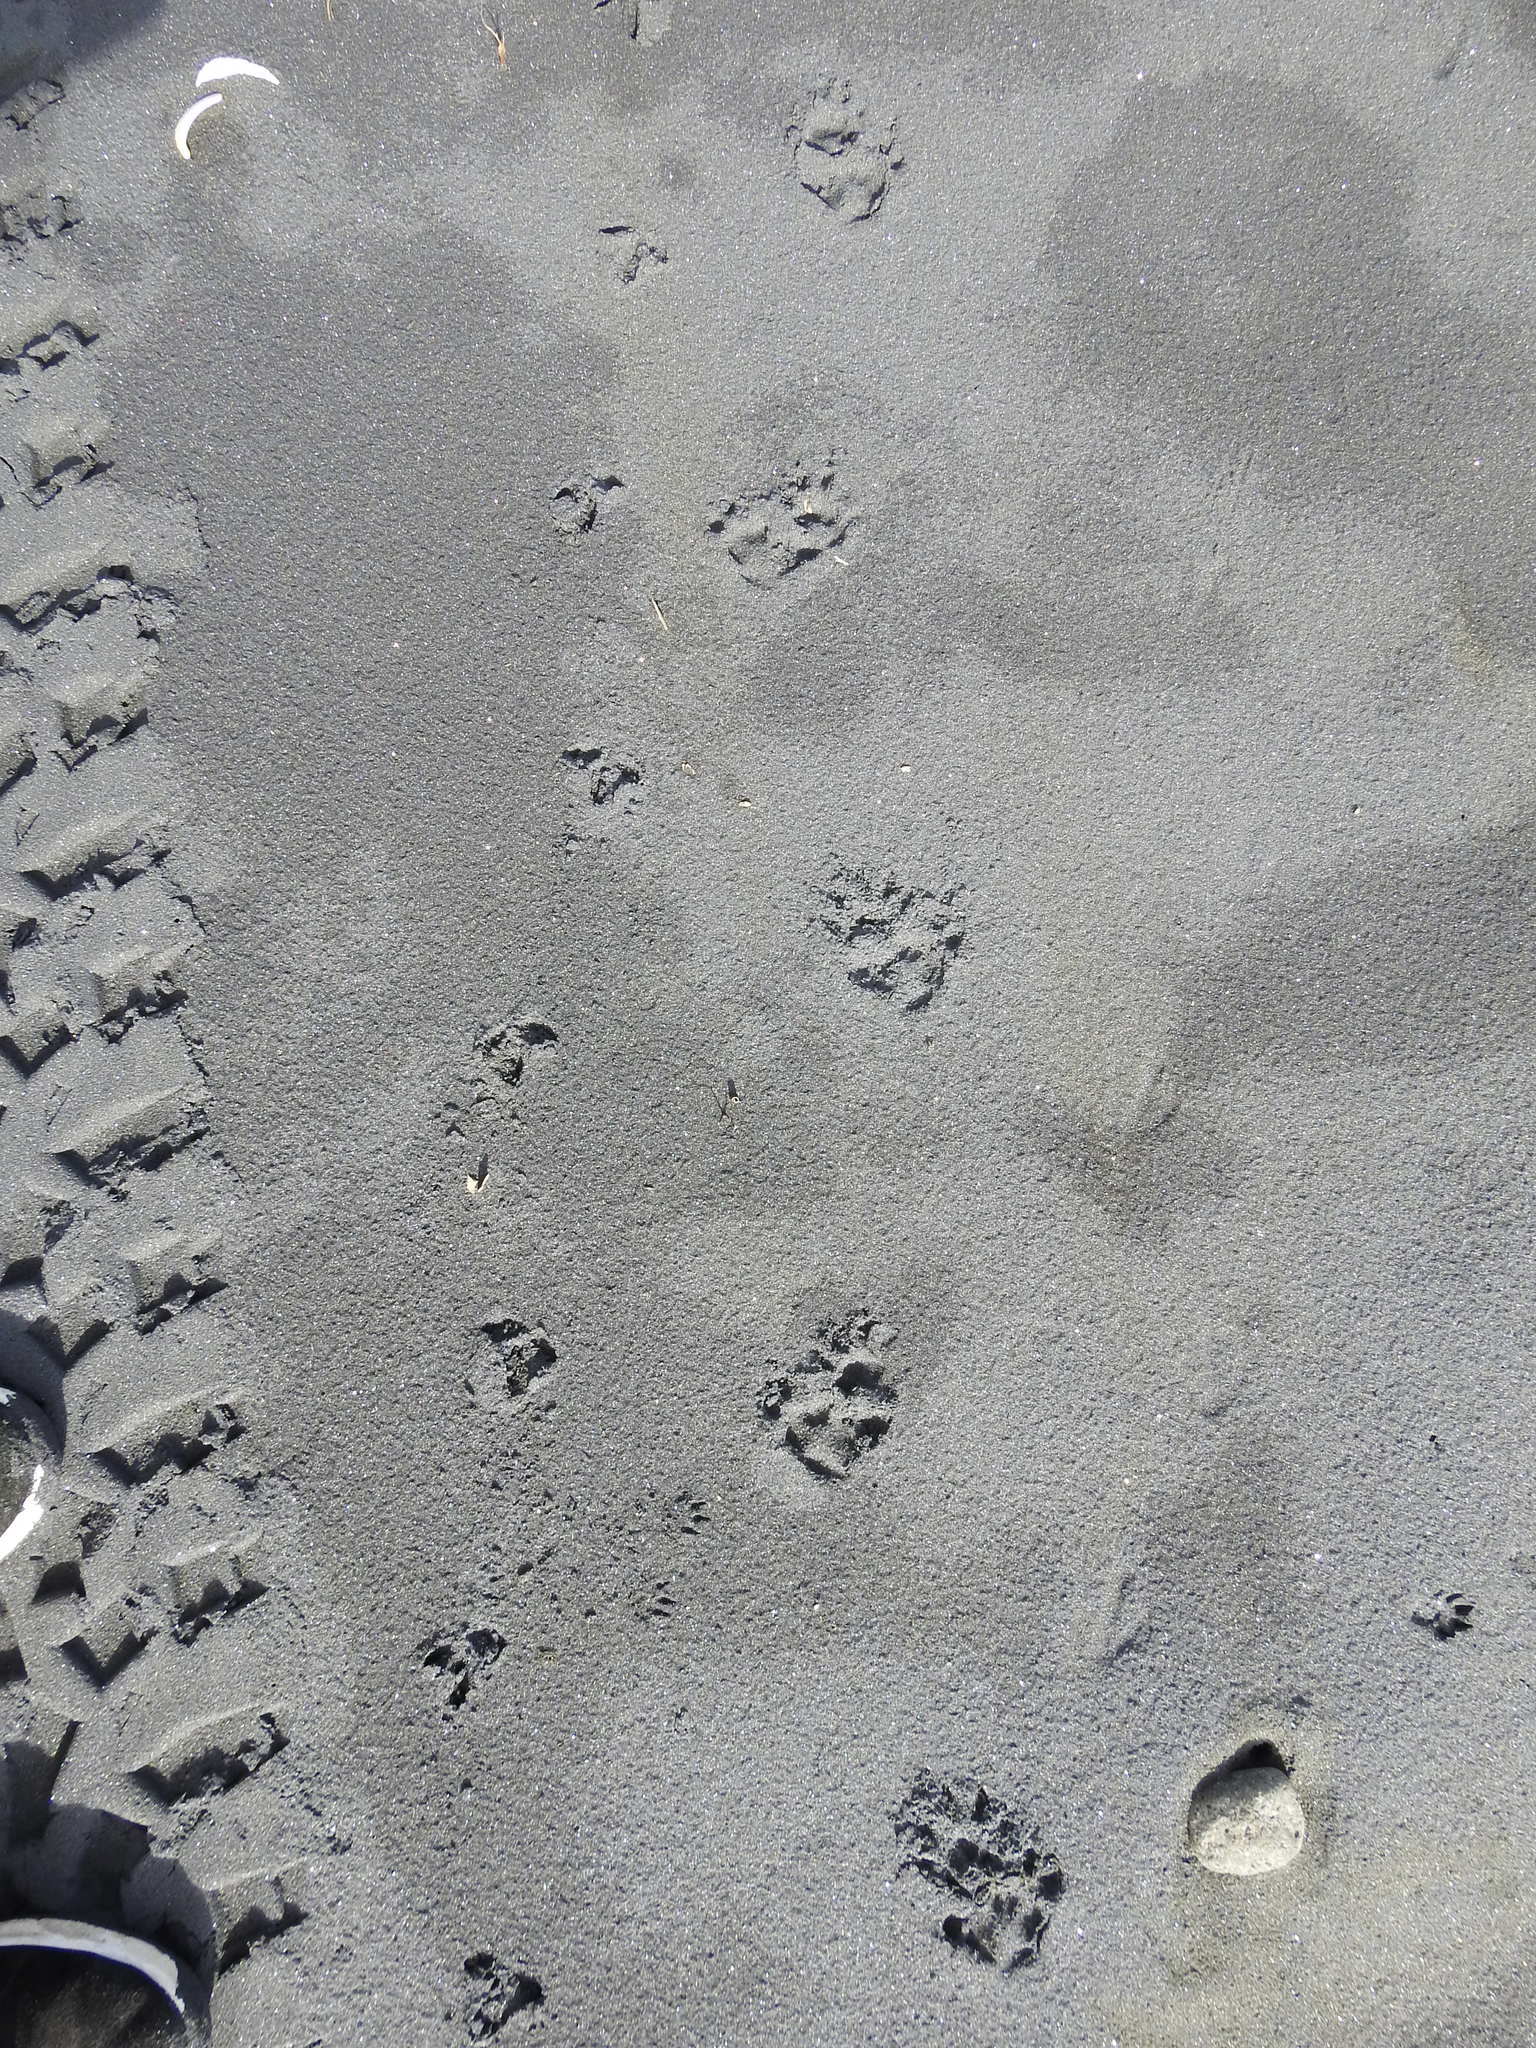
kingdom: Animalia
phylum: Chordata
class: Mammalia
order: Diprotodontia
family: Phalangeridae
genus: Trichosurus
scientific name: Trichosurus vulpecula
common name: Common brushtail
